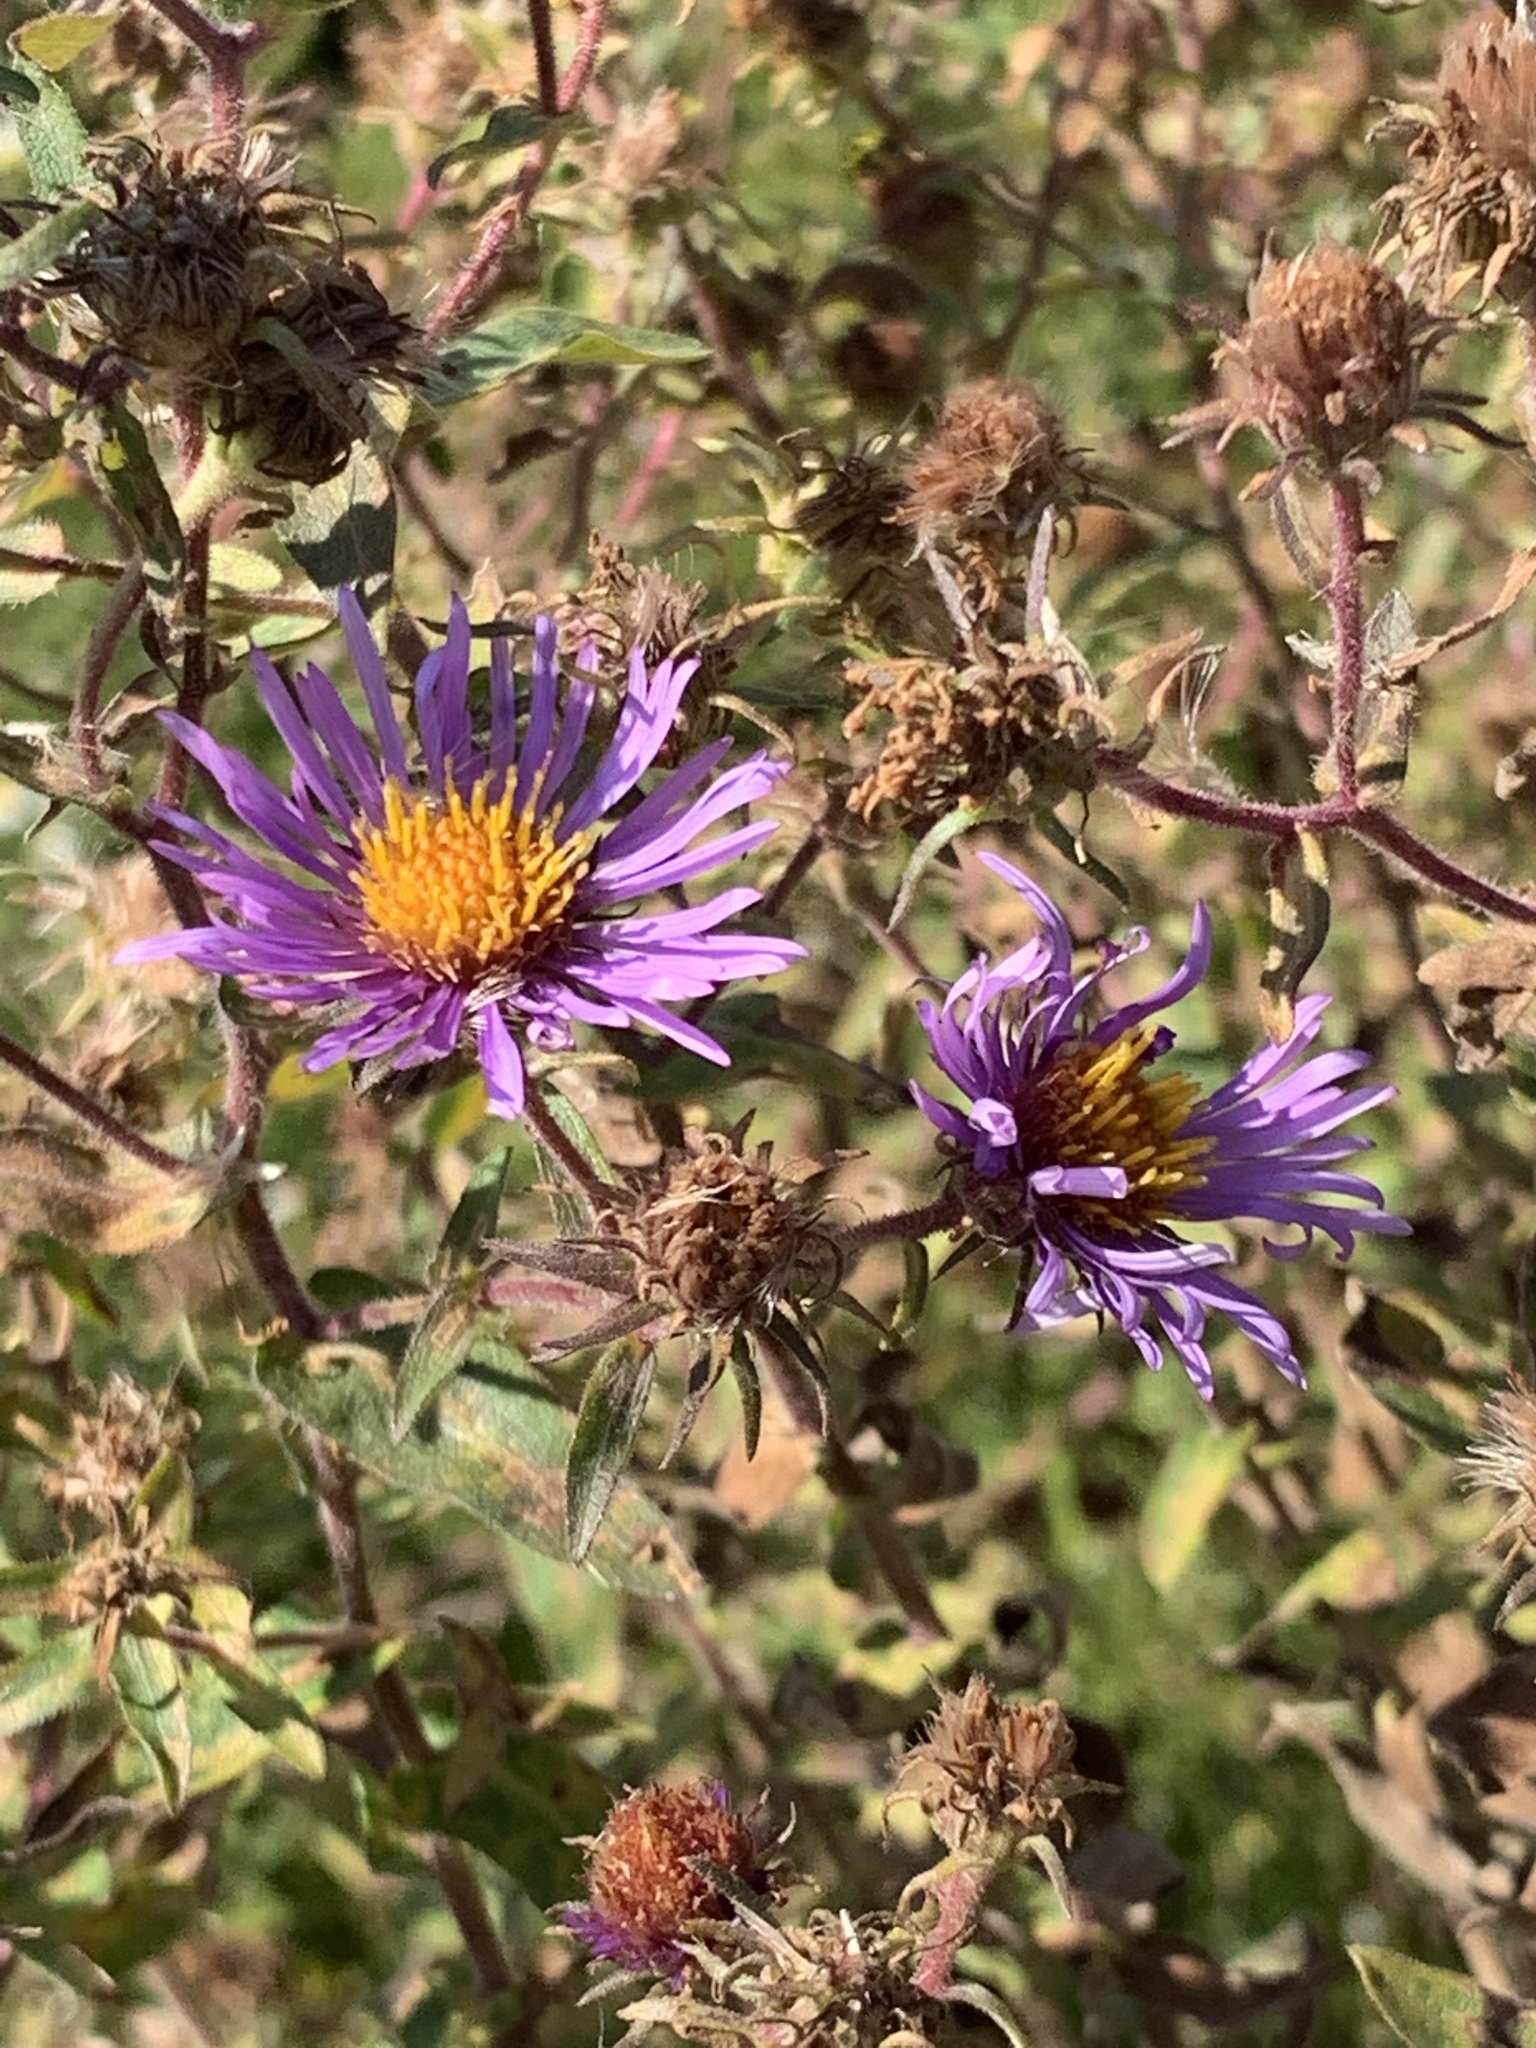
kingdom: Plantae
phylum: Tracheophyta
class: Magnoliopsida
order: Asterales
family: Asteraceae
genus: Symphyotrichum
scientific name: Symphyotrichum novae-angliae
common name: Michaelmas daisy
